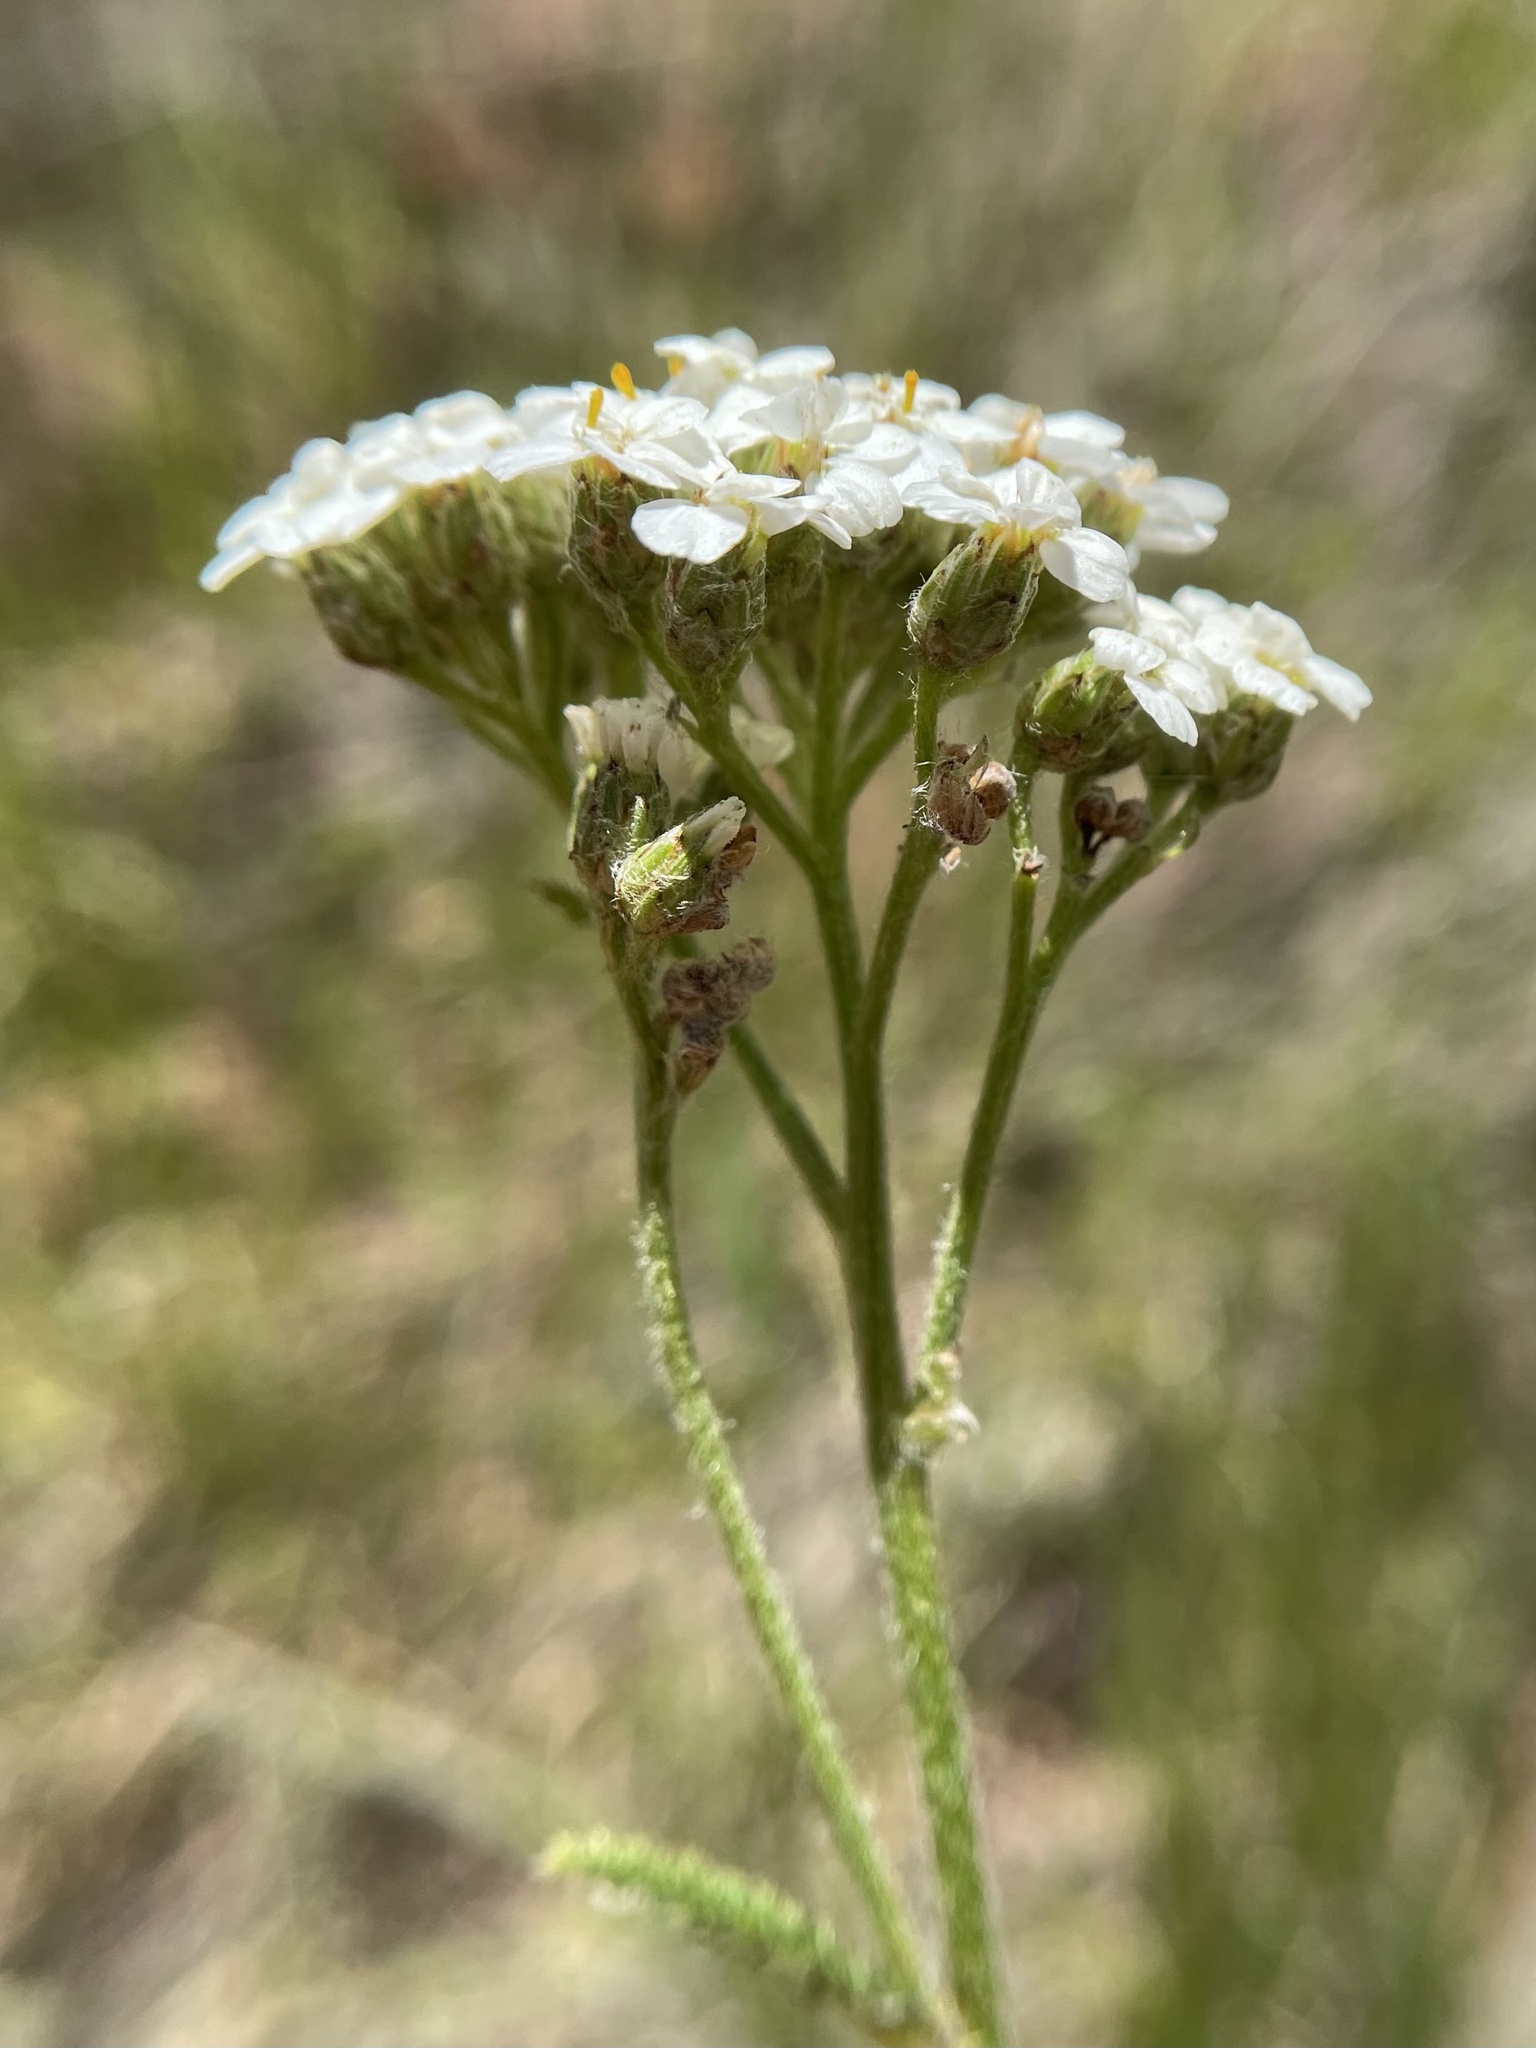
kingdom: Plantae
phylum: Tracheophyta
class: Magnoliopsida
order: Asterales
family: Asteraceae
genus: Achillea
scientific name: Achillea millefolium
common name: Yarrow
